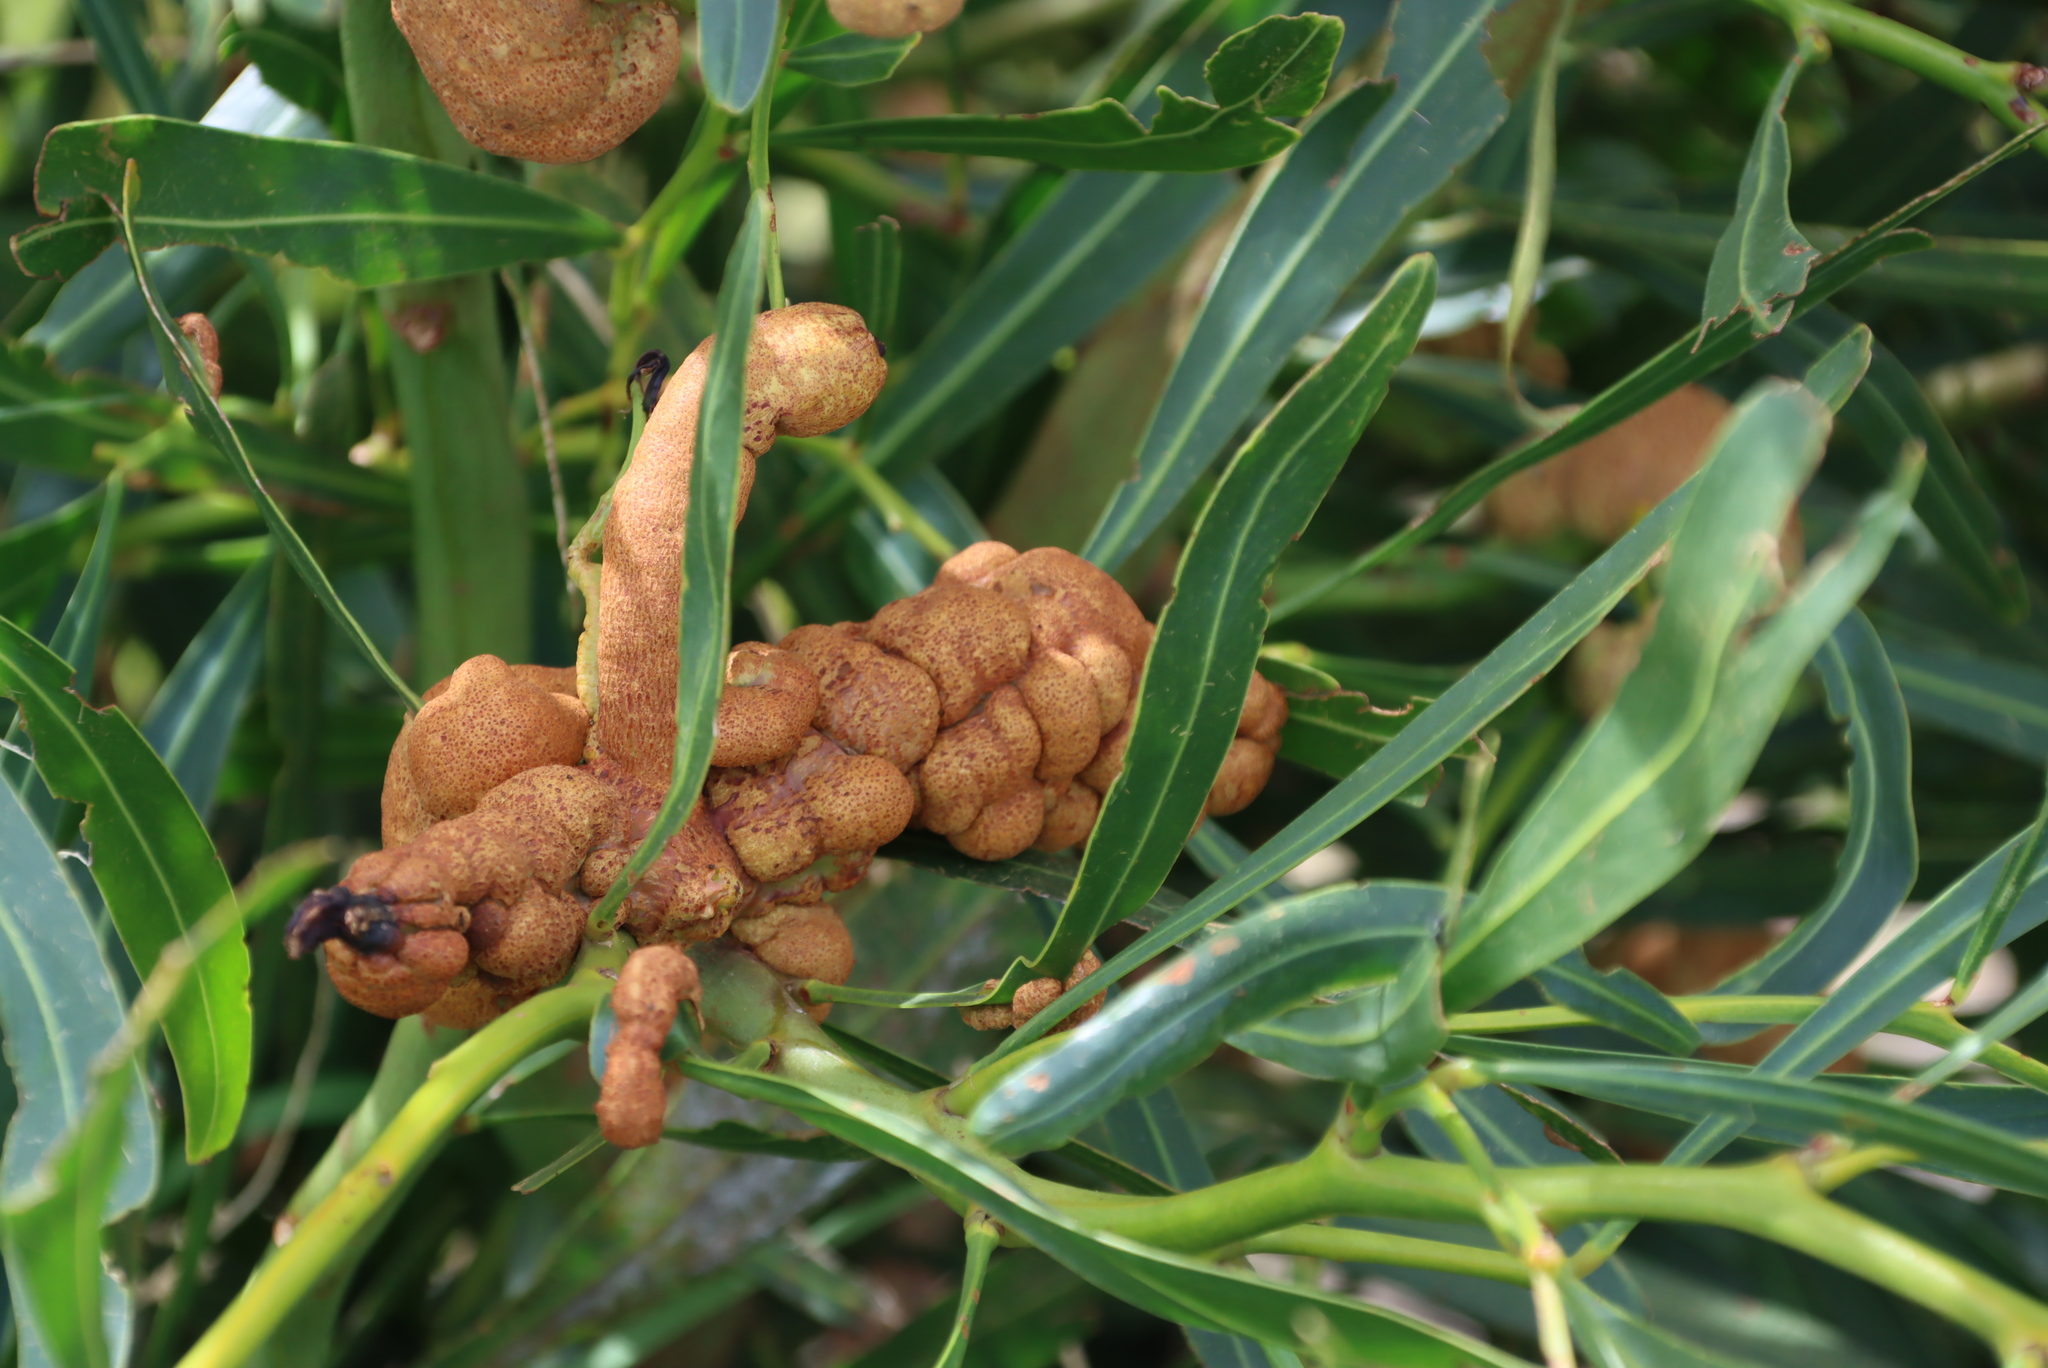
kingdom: Fungi
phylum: Basidiomycota
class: Pucciniomycetes
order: Pucciniales
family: Uromycladiaceae
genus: Uromycladium
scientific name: Uromycladium morrisii
